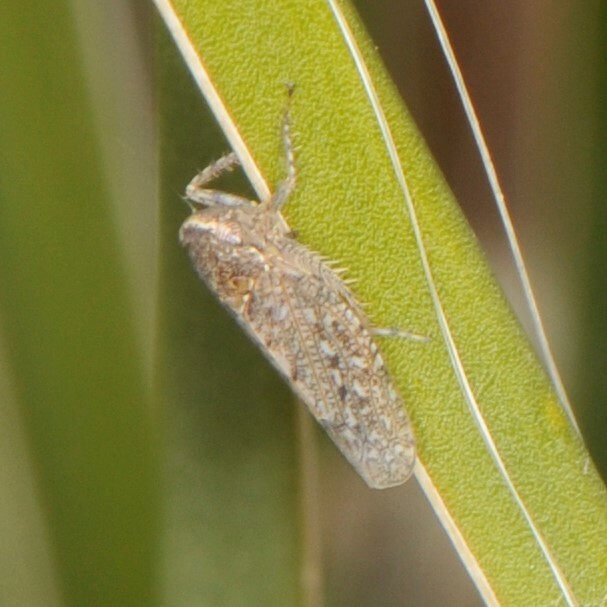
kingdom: Animalia
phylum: Arthropoda
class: Insecta
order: Hemiptera
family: Cicadellidae
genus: Texananus
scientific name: Texananus
